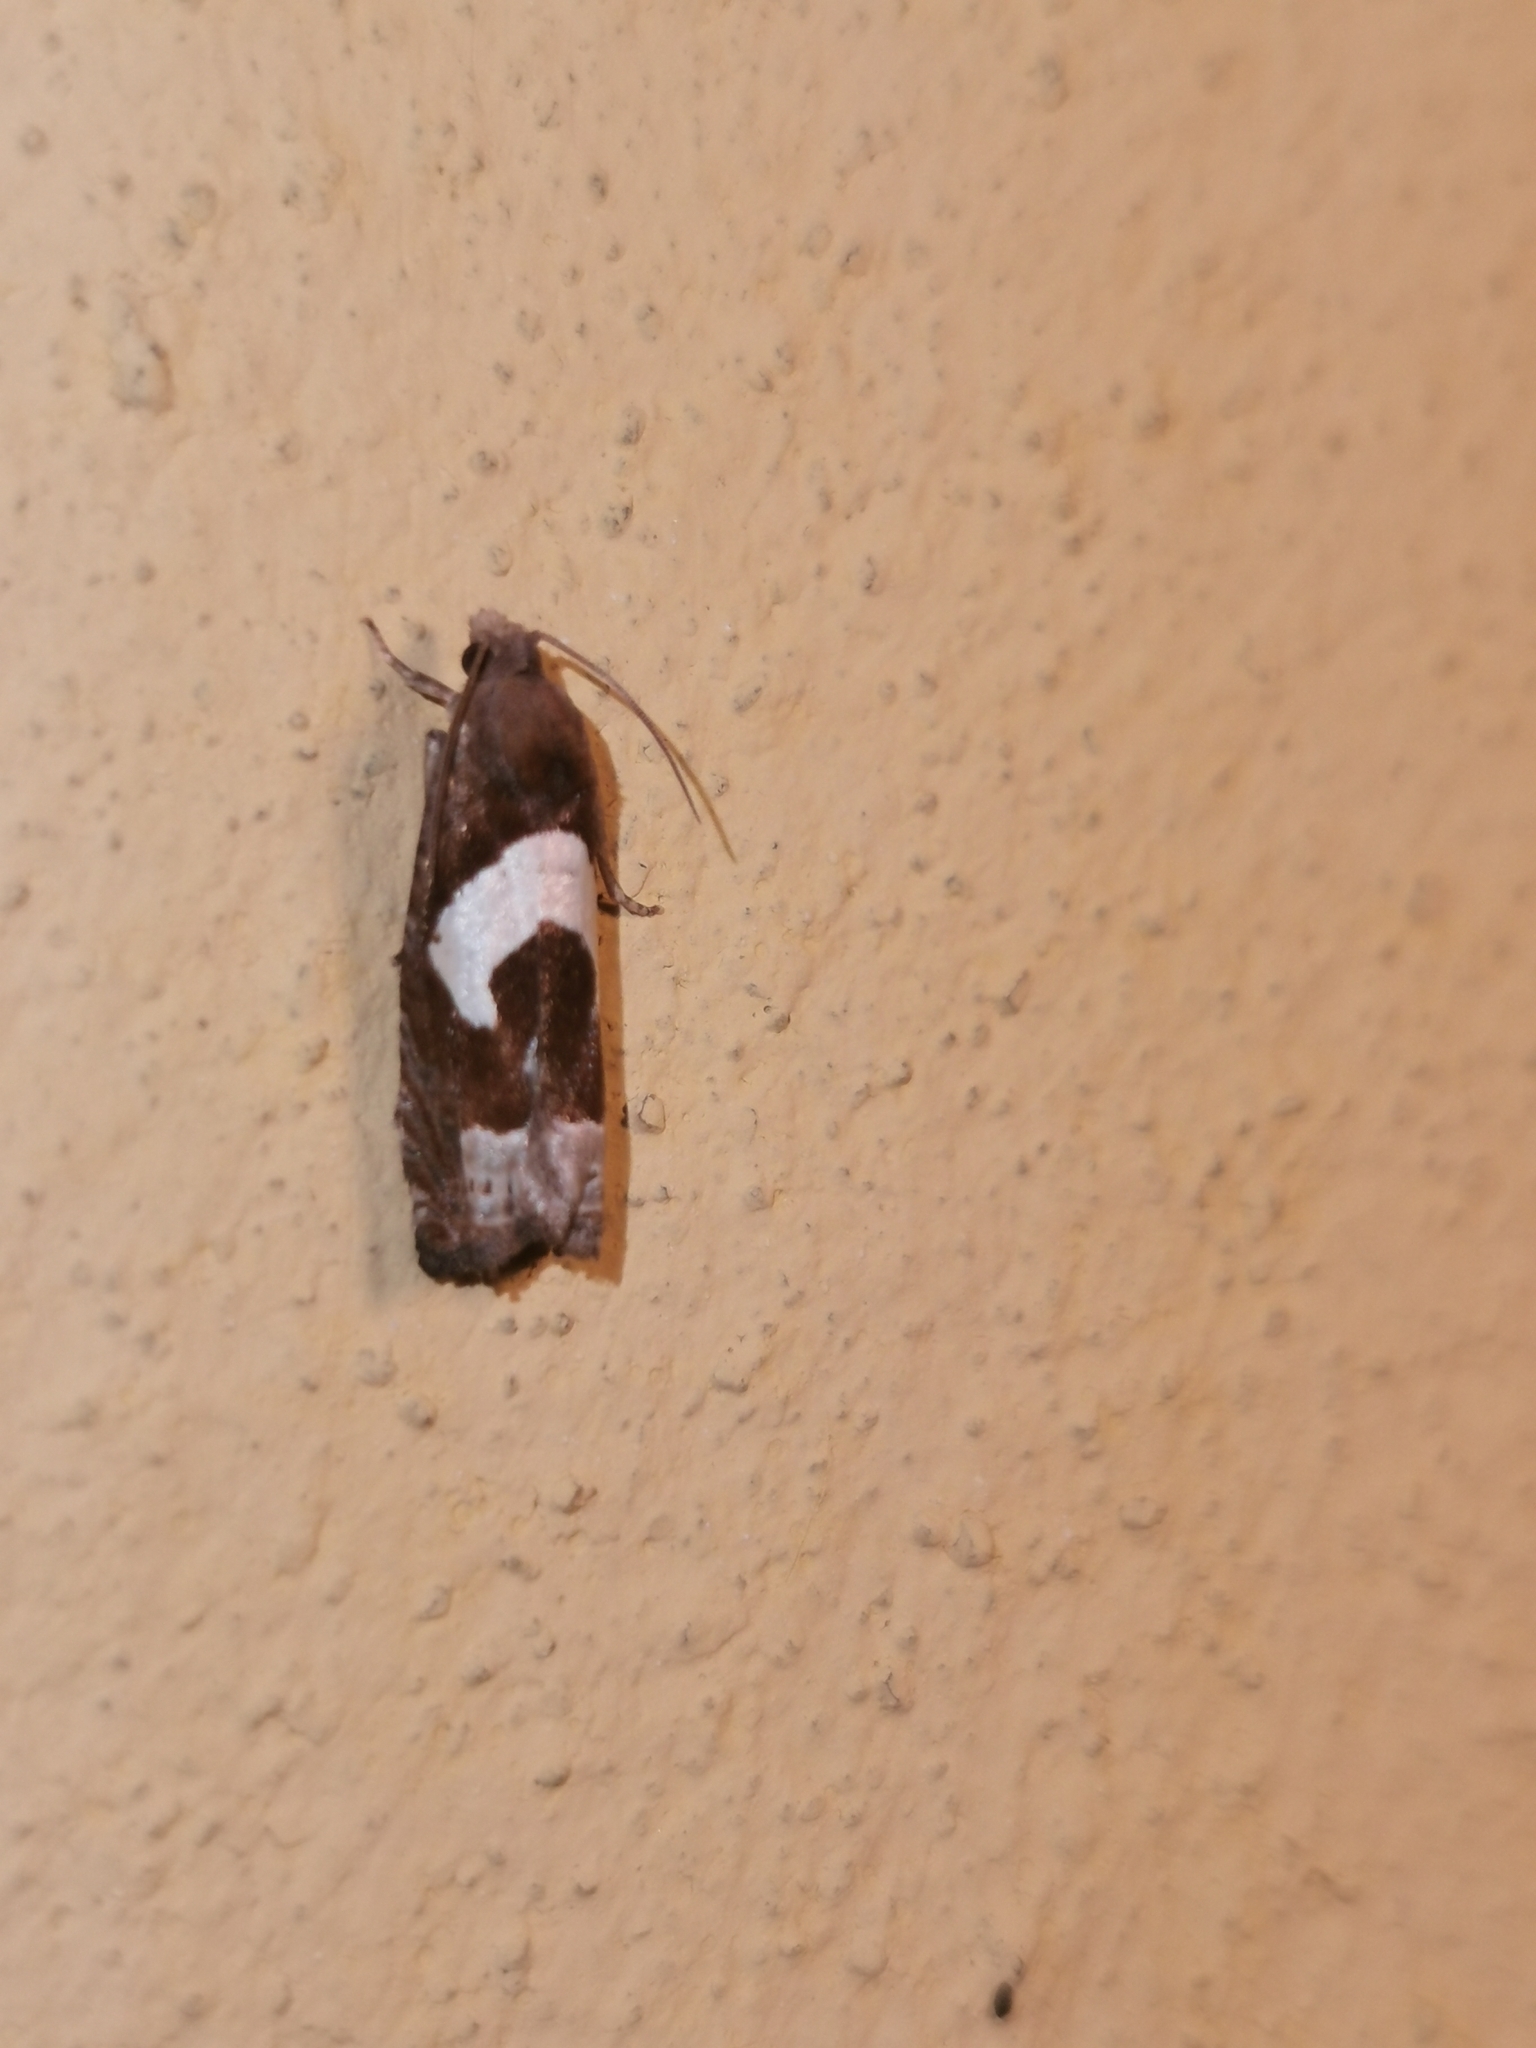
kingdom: Animalia
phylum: Arthropoda
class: Insecta
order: Lepidoptera
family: Tortricidae
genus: Epiblema
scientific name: Epiblema foenella
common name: White-foot bell
